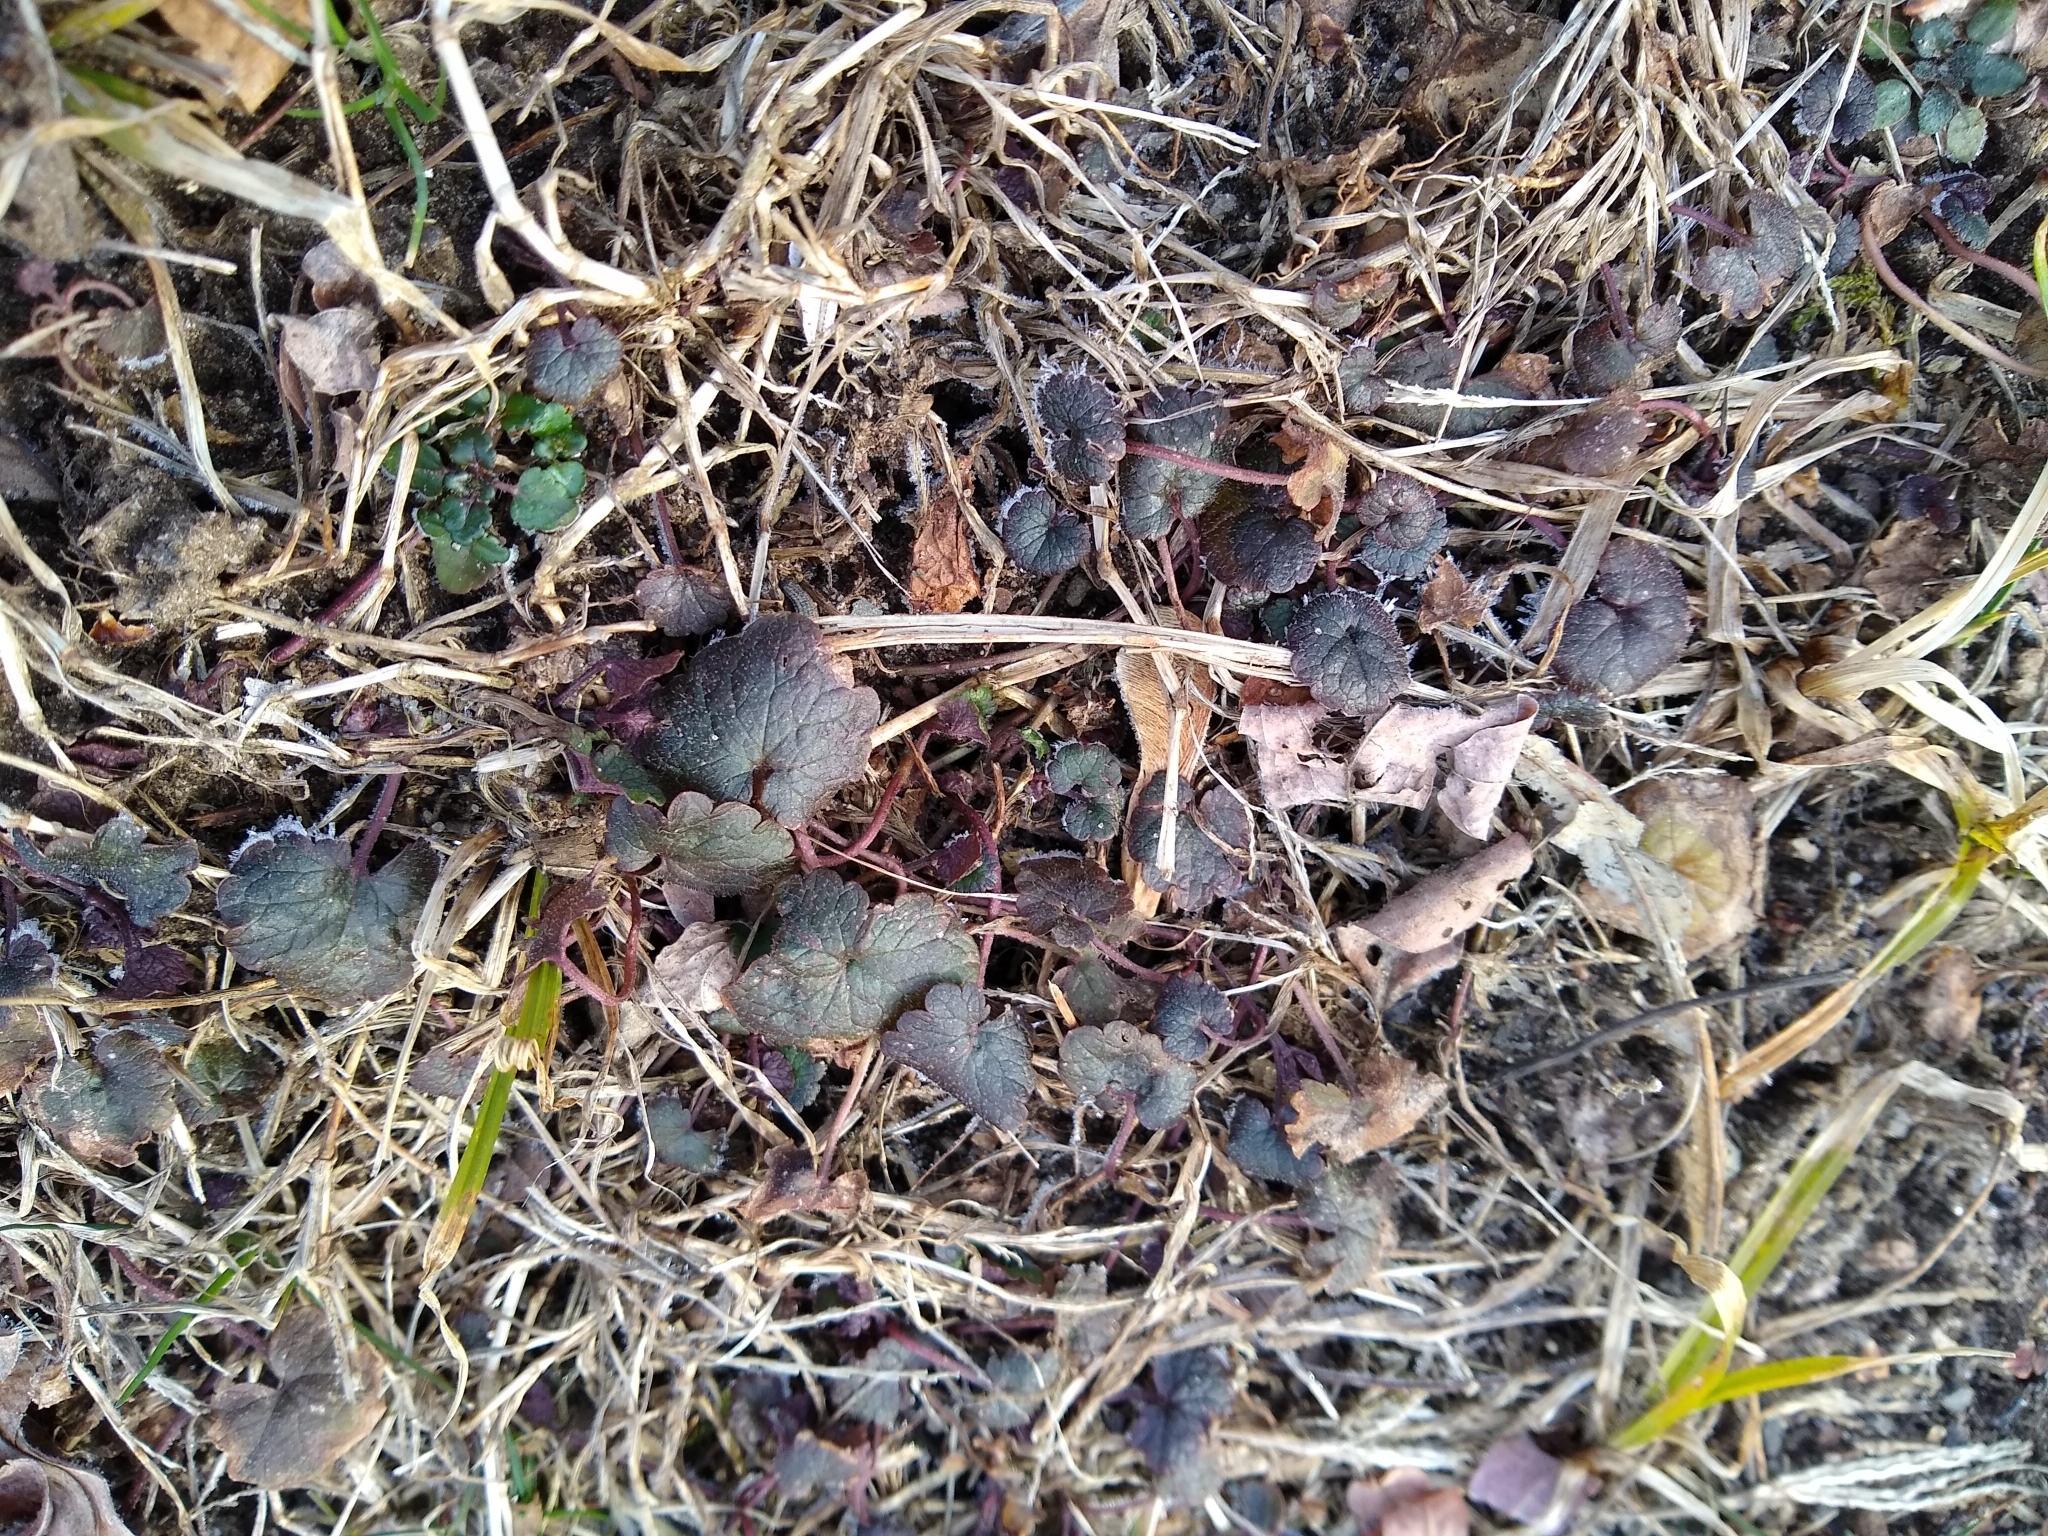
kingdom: Plantae
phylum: Tracheophyta
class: Magnoliopsida
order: Lamiales
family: Lamiaceae
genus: Glechoma
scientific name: Glechoma hederacea
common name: Ground ivy
